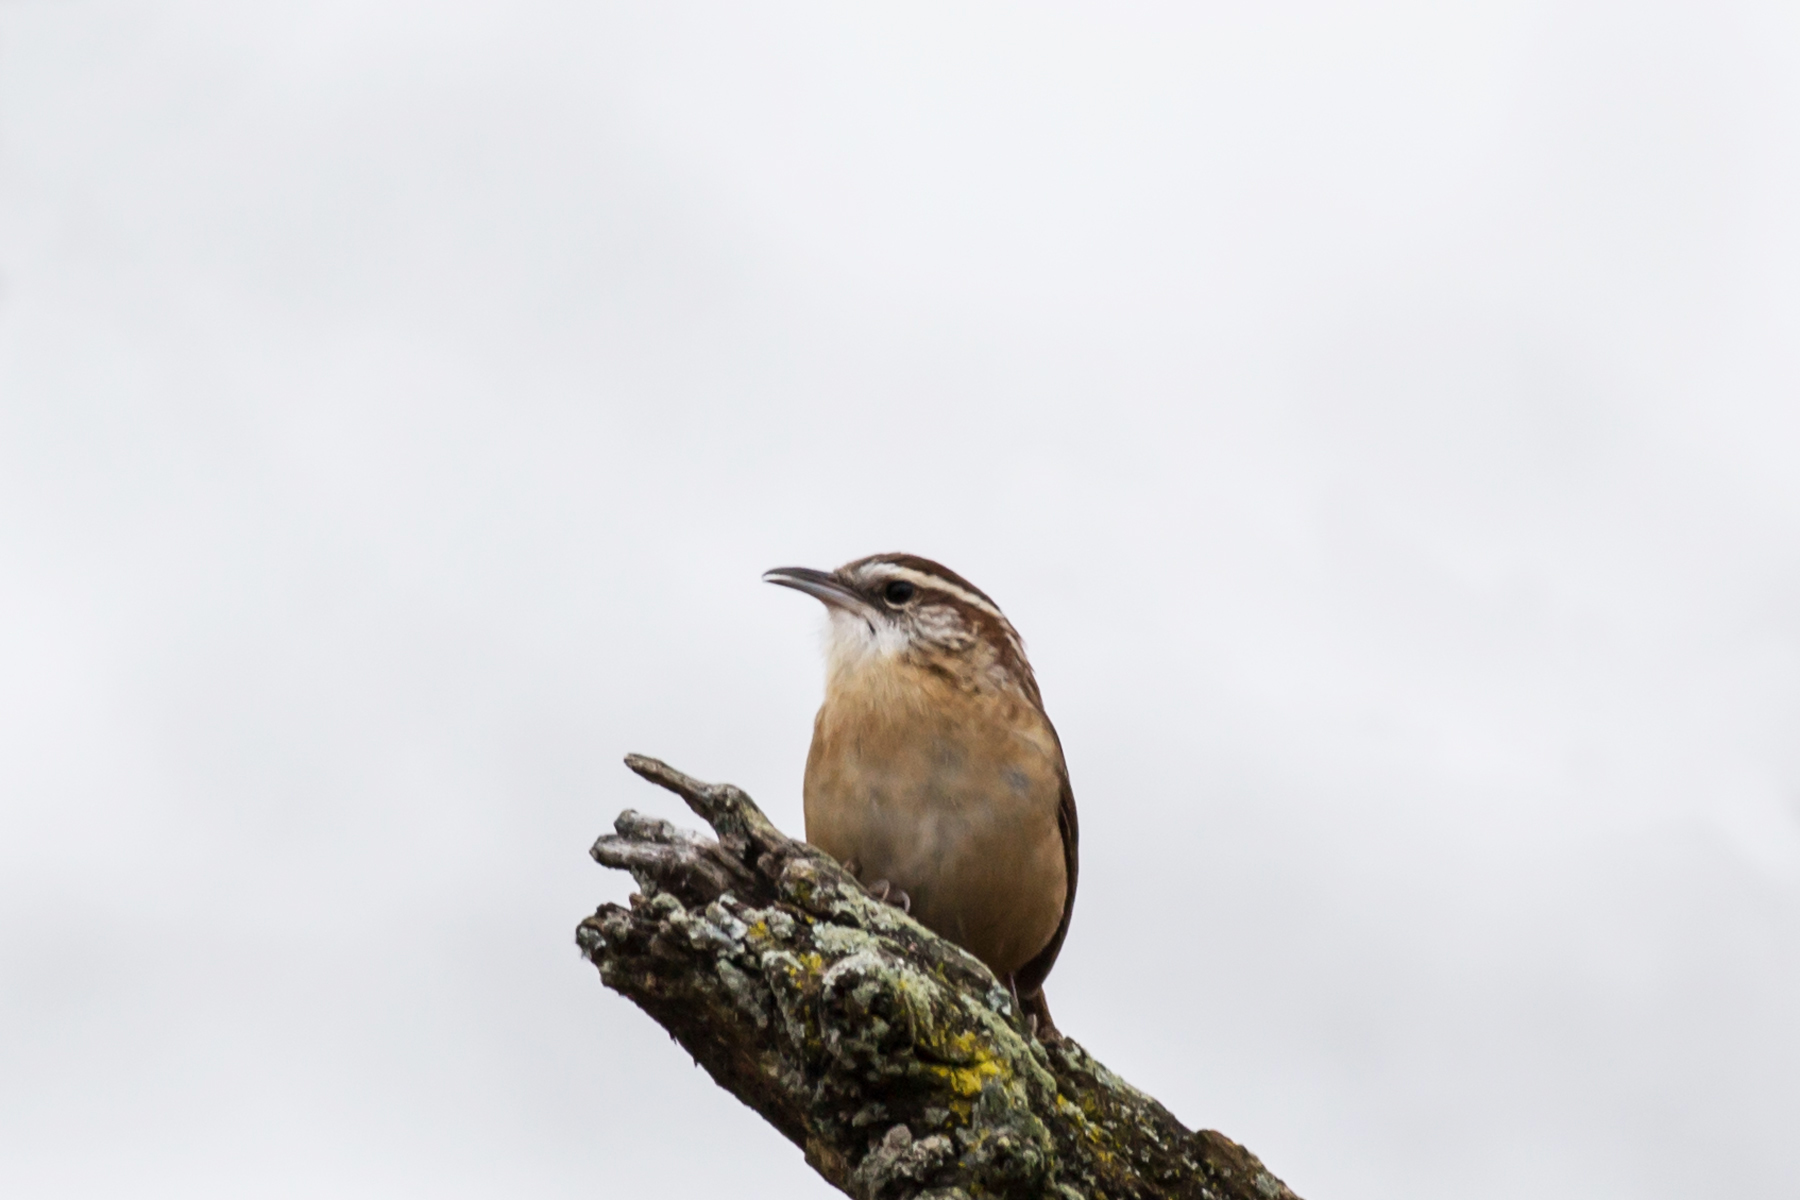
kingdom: Animalia
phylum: Chordata
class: Aves
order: Passeriformes
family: Troglodytidae
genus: Thryothorus
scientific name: Thryothorus ludovicianus
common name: Carolina wren
